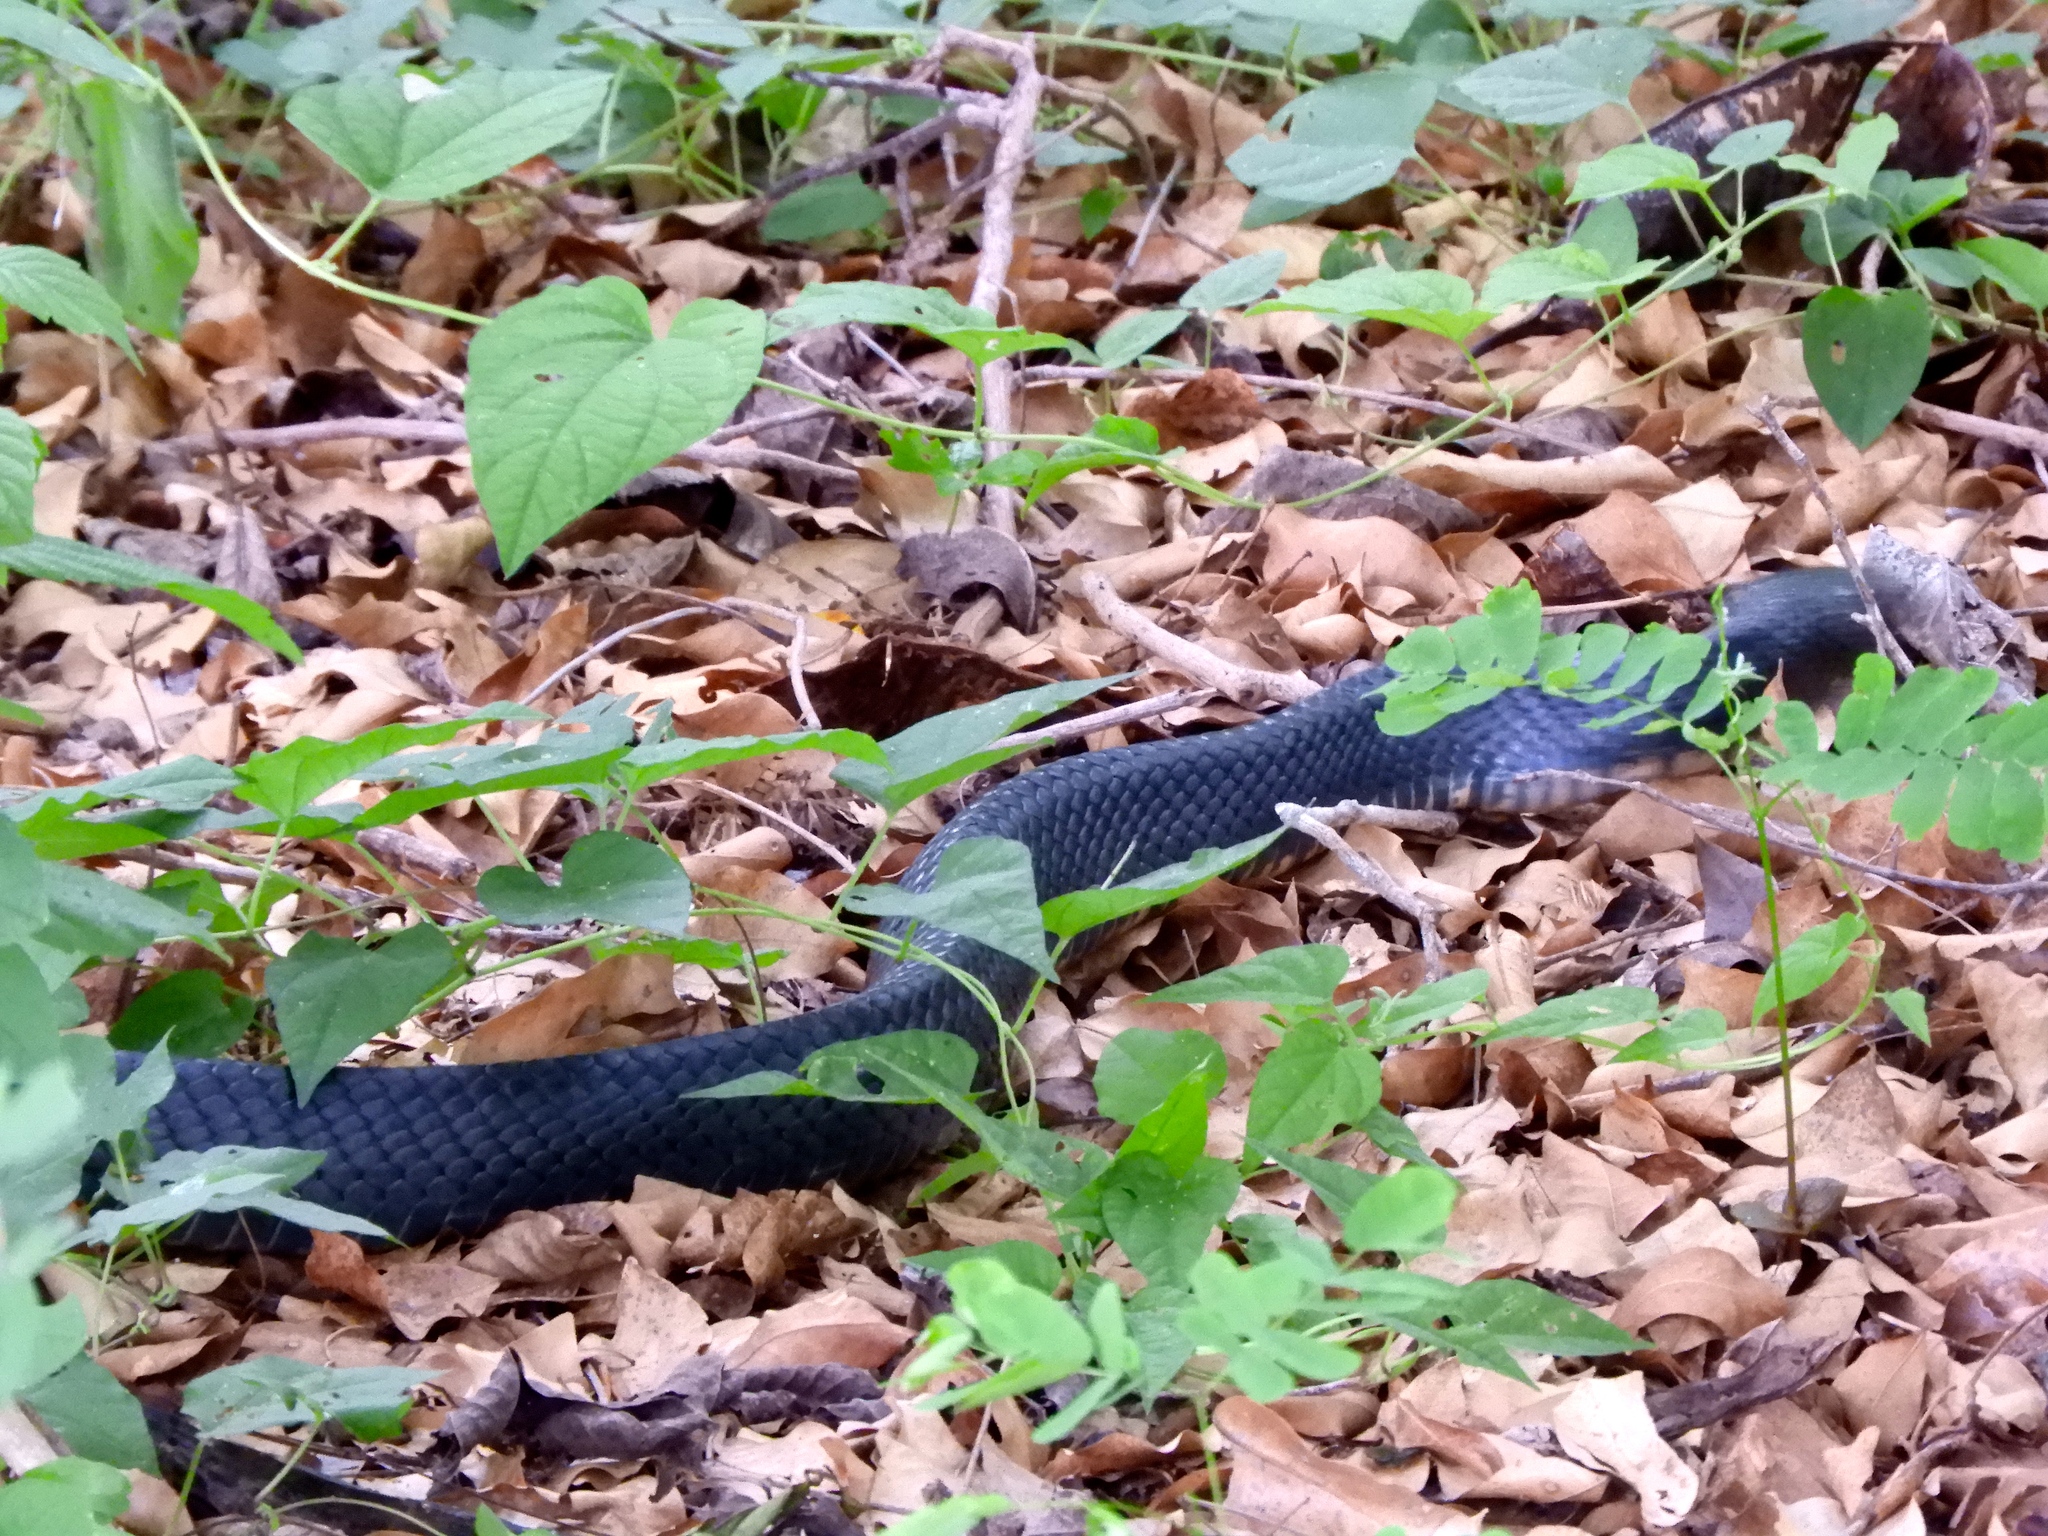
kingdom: Animalia
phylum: Chordata
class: Squamata
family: Colubridae
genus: Drymarchon
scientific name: Drymarchon melanurus
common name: Central american indigo snake
